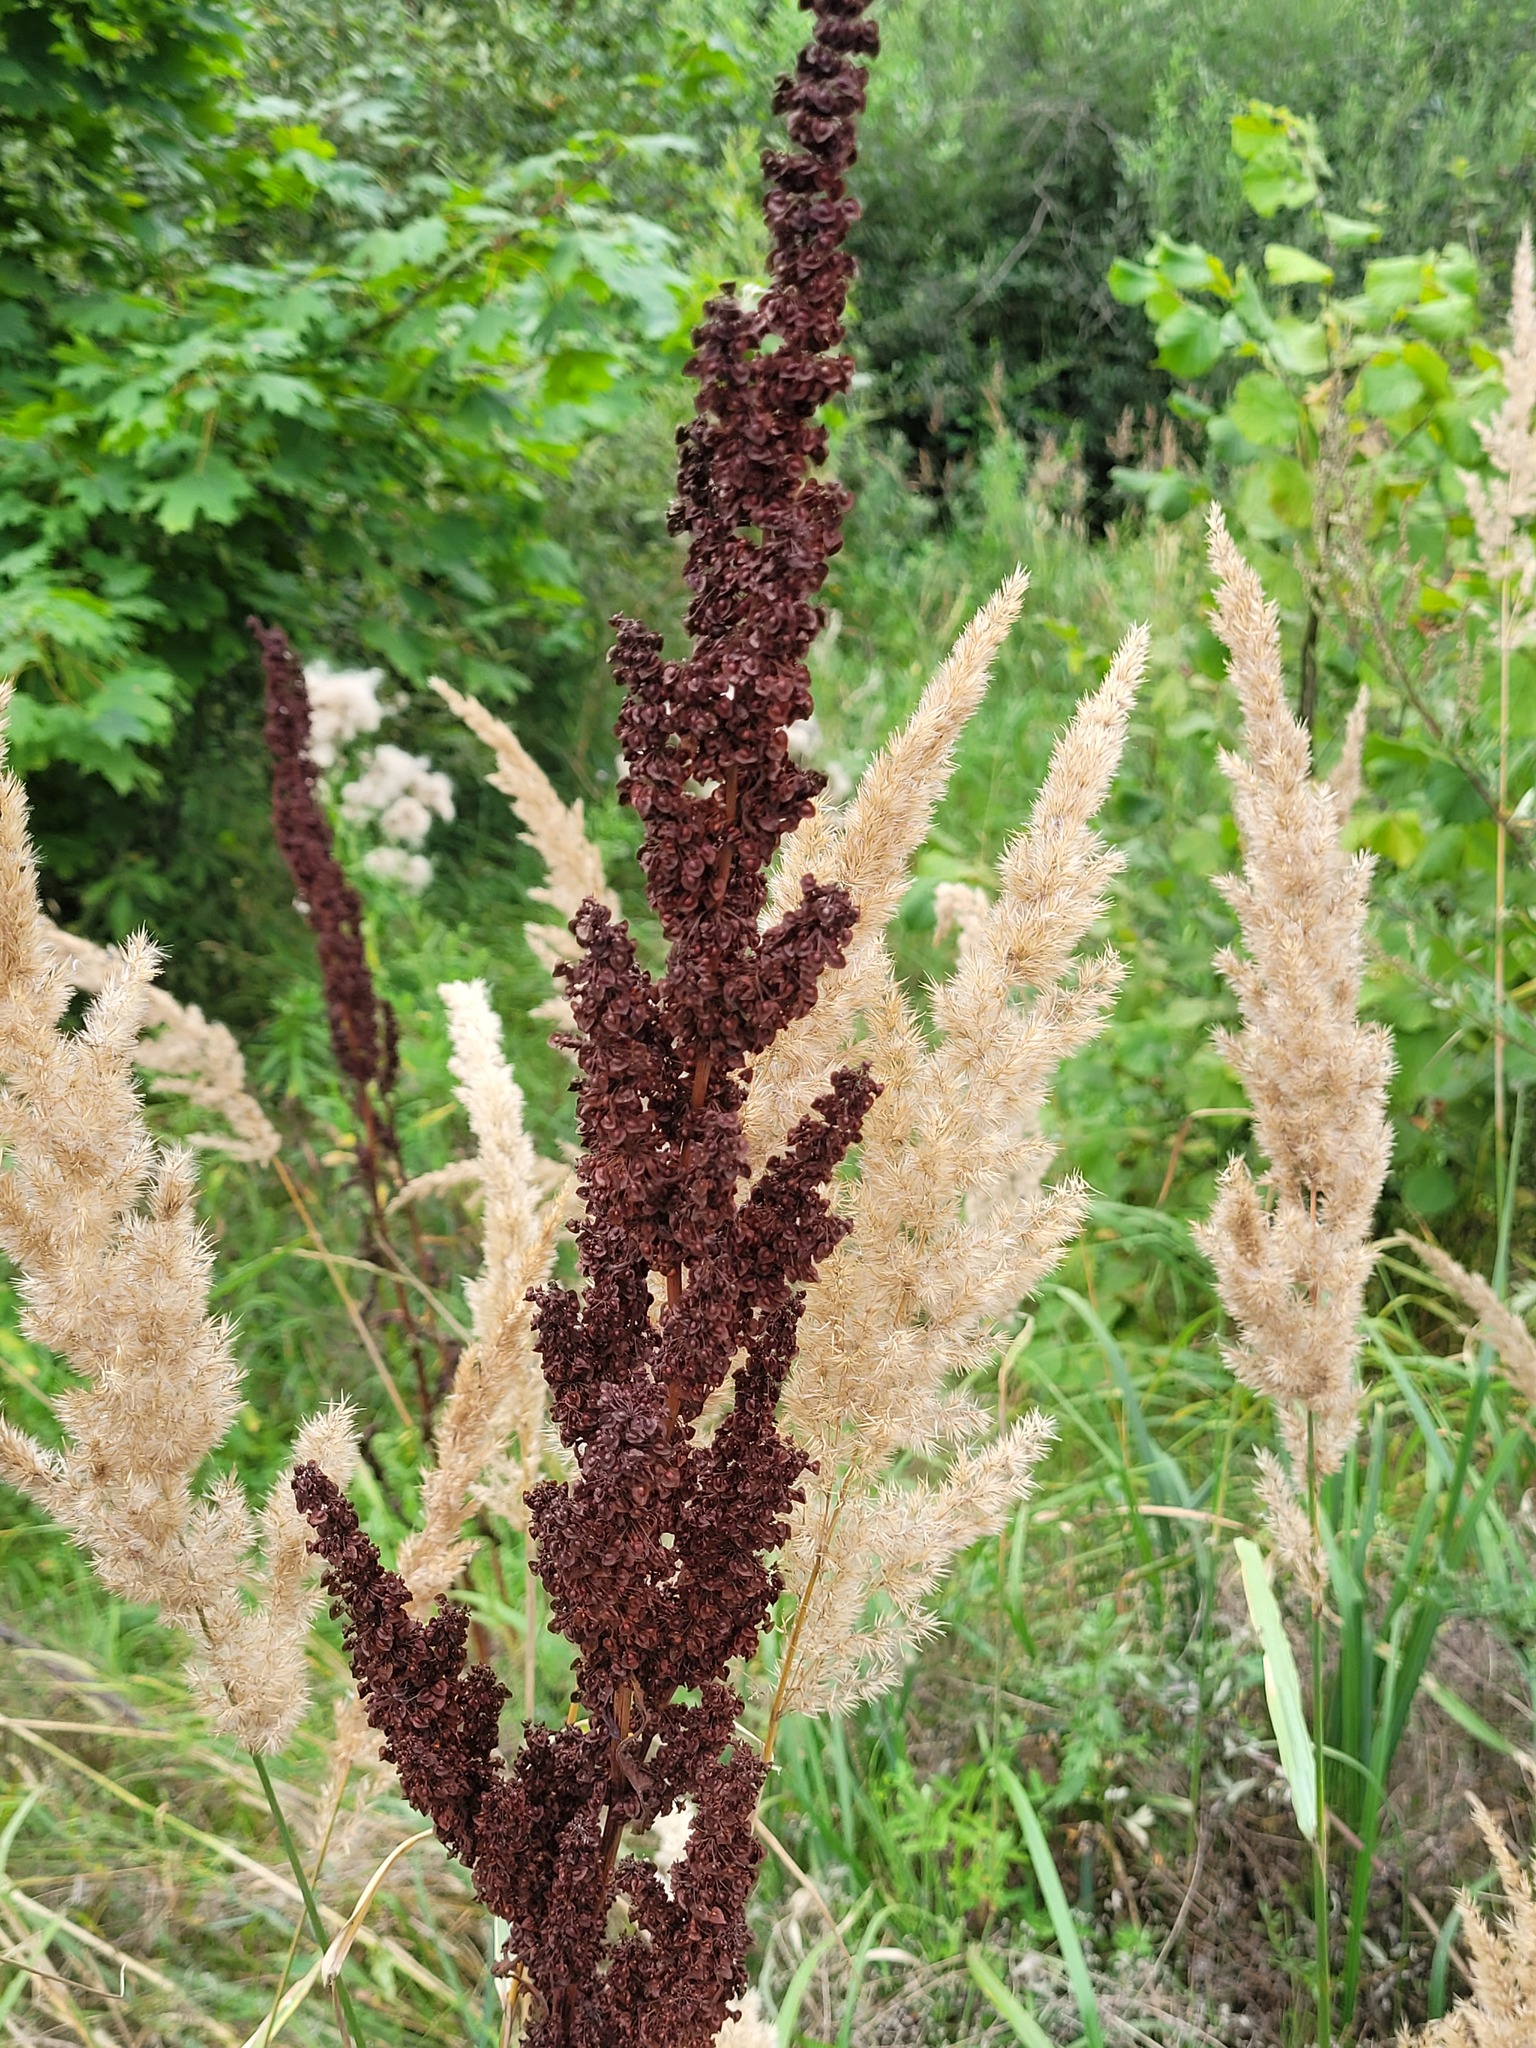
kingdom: Plantae
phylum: Tracheophyta
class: Magnoliopsida
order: Caryophyllales
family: Polygonaceae
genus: Rumex
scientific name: Rumex crispus
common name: Curled dock
